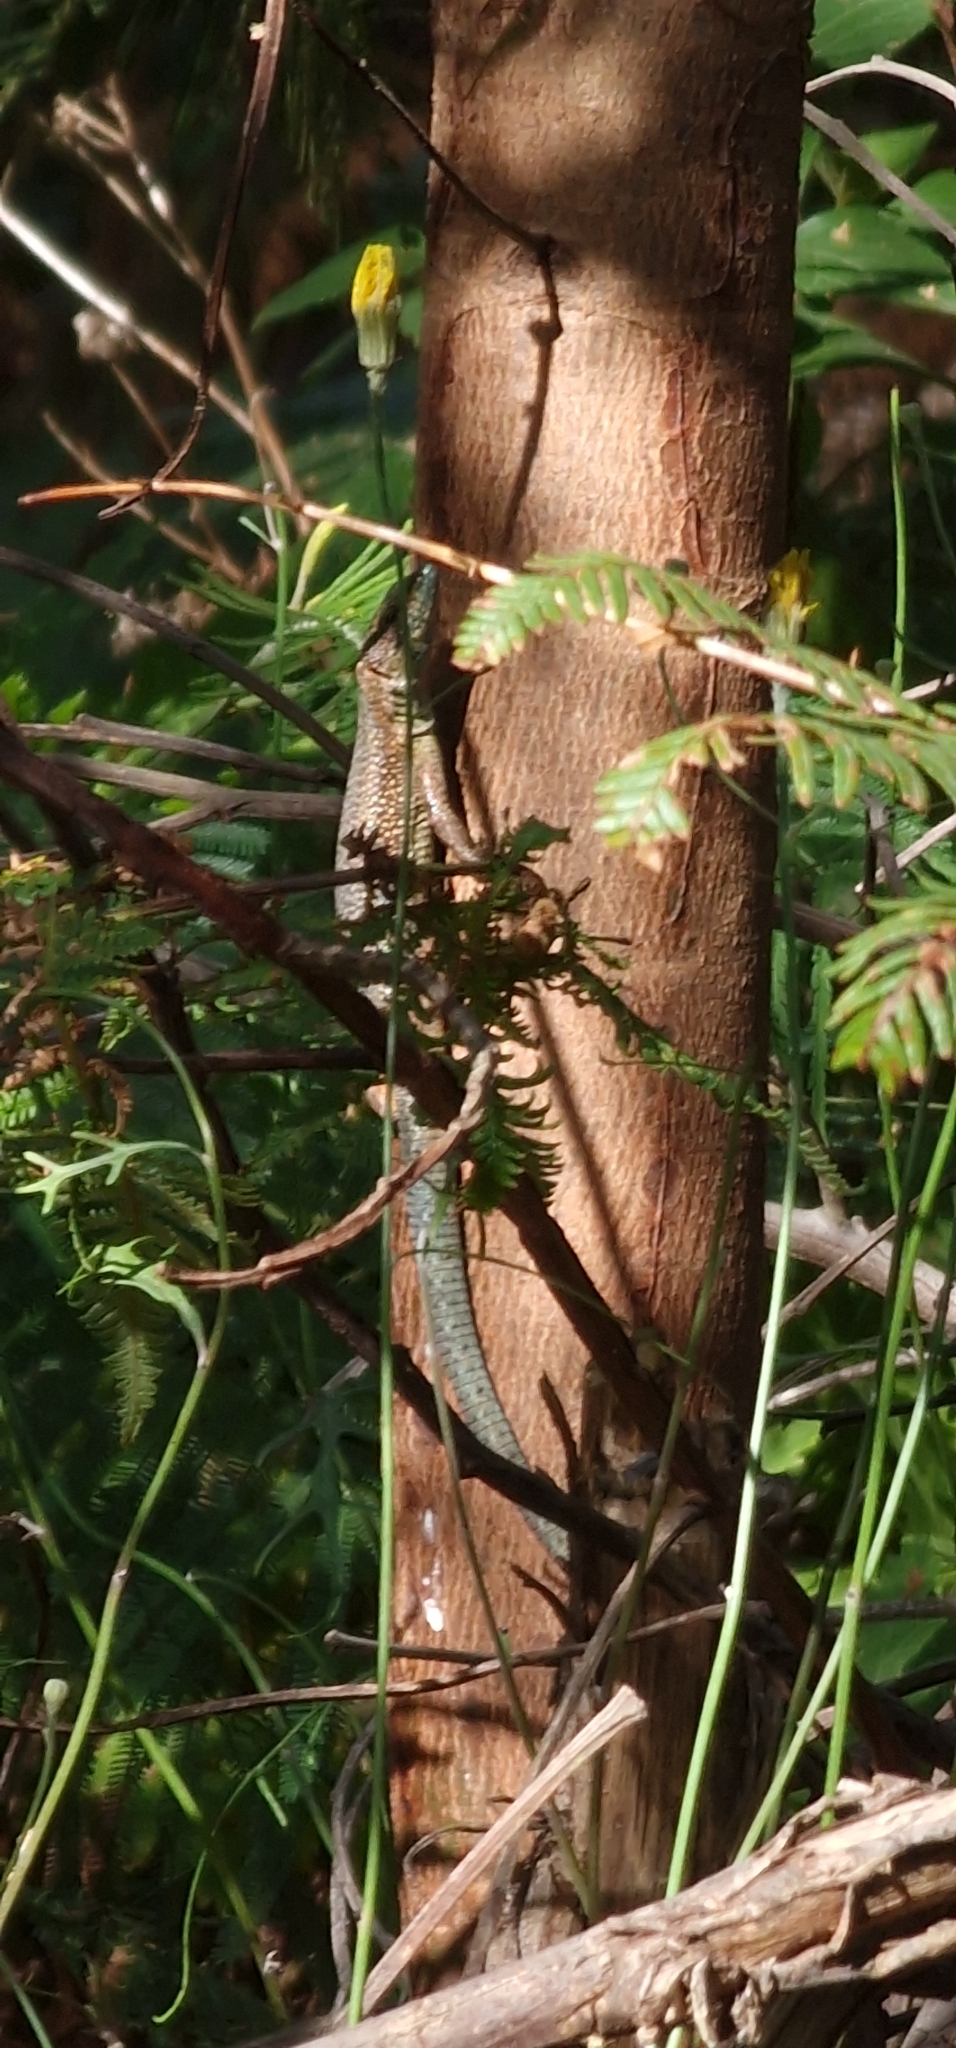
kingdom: Animalia
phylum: Chordata
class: Squamata
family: Lacertidae
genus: Teira
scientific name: Teira dugesii
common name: Madeira lizard
